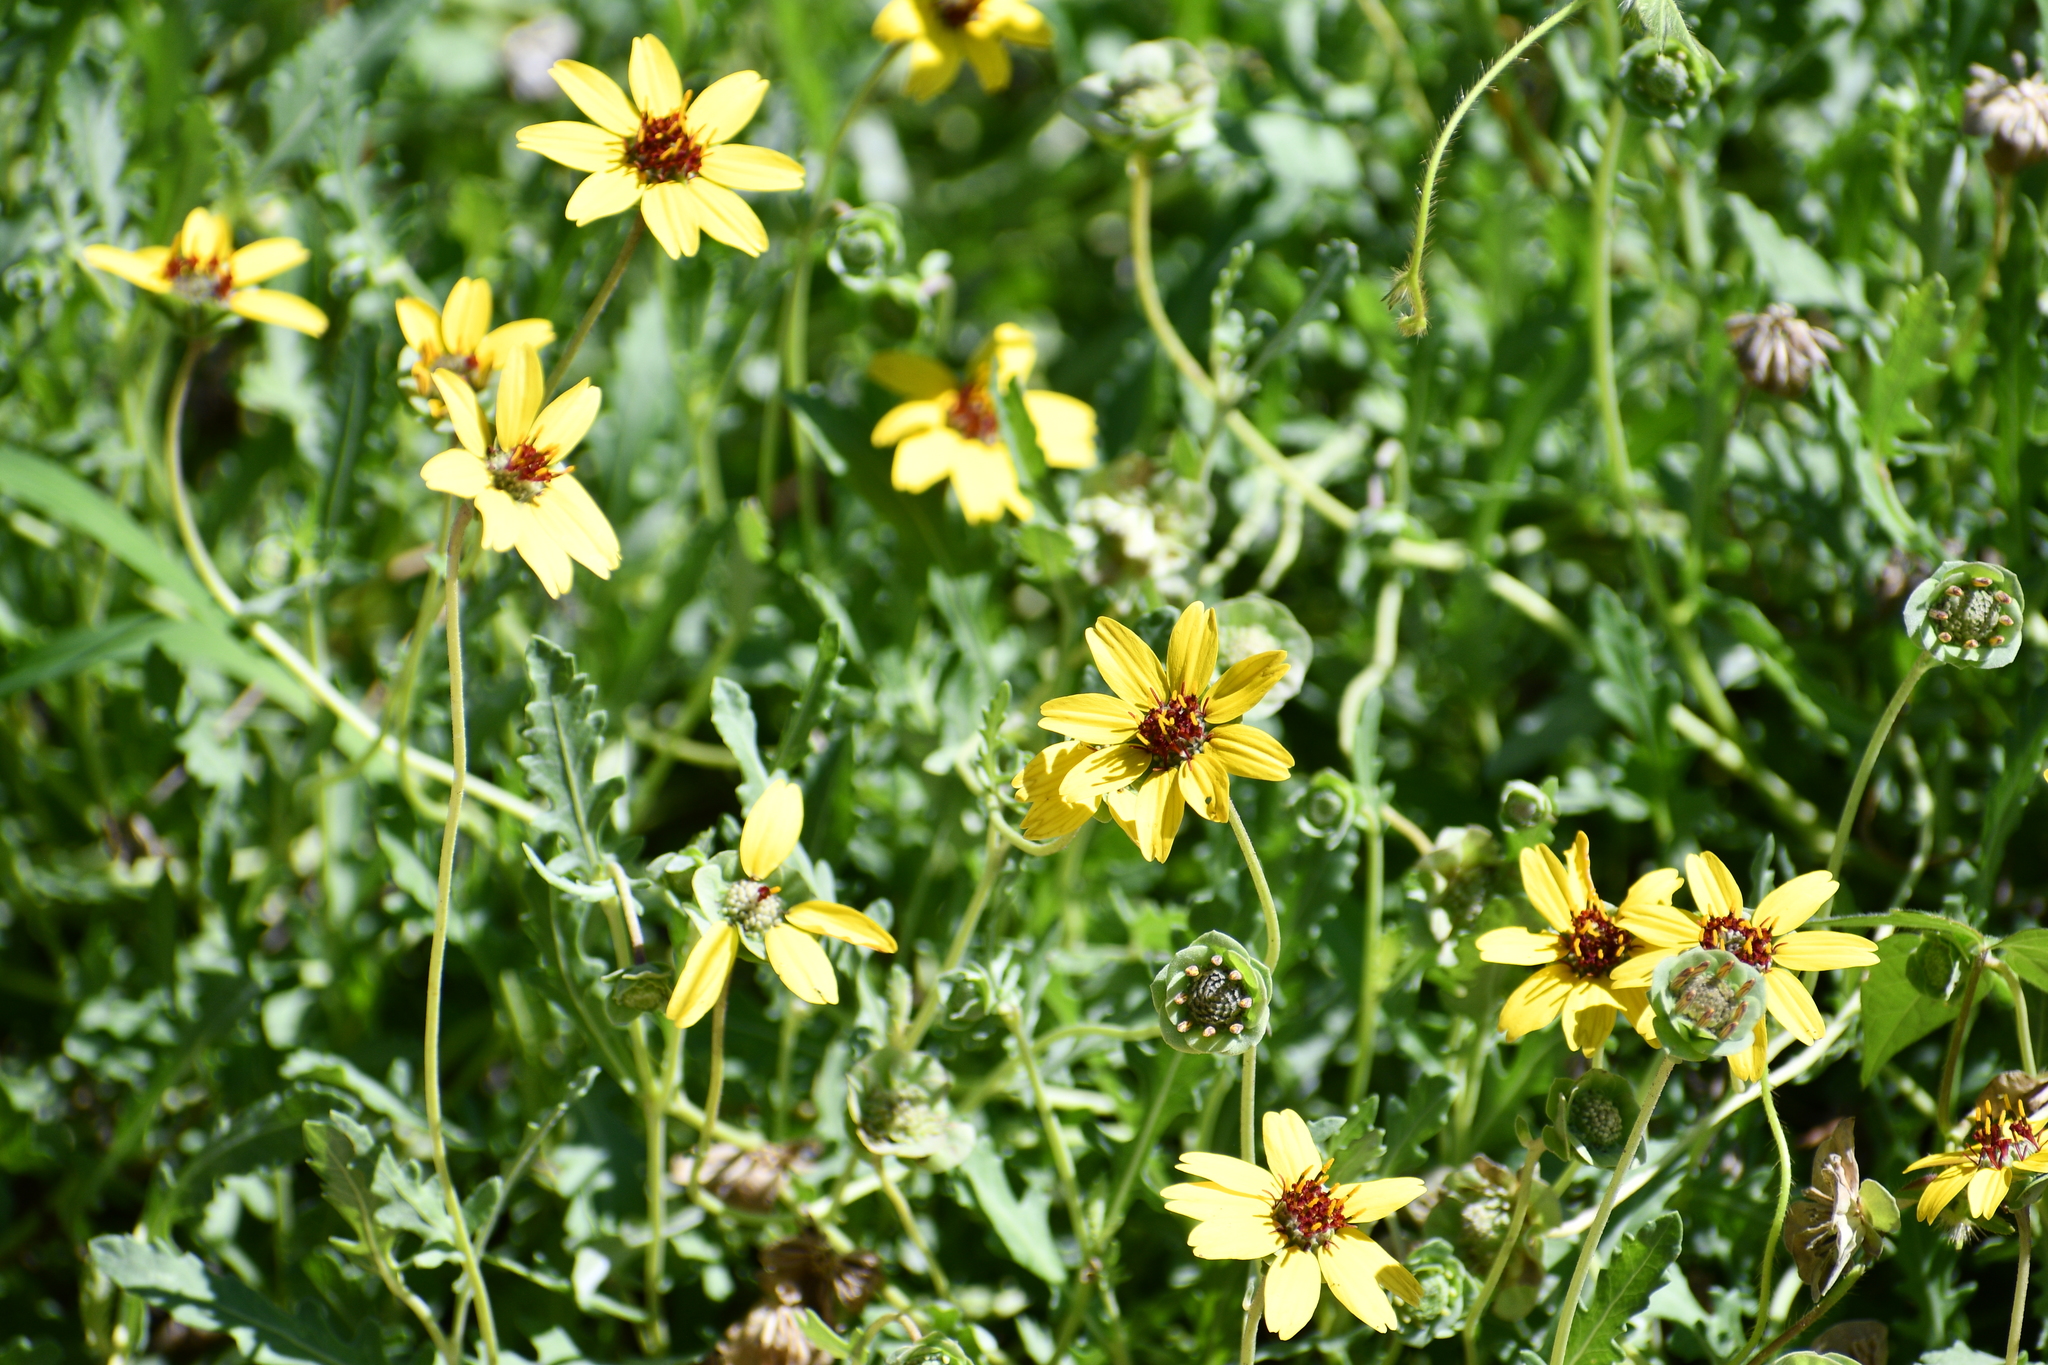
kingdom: Plantae
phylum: Tracheophyta
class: Magnoliopsida
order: Asterales
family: Asteraceae
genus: Berlandiera
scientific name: Berlandiera lyrata
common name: Chocolate-flower
